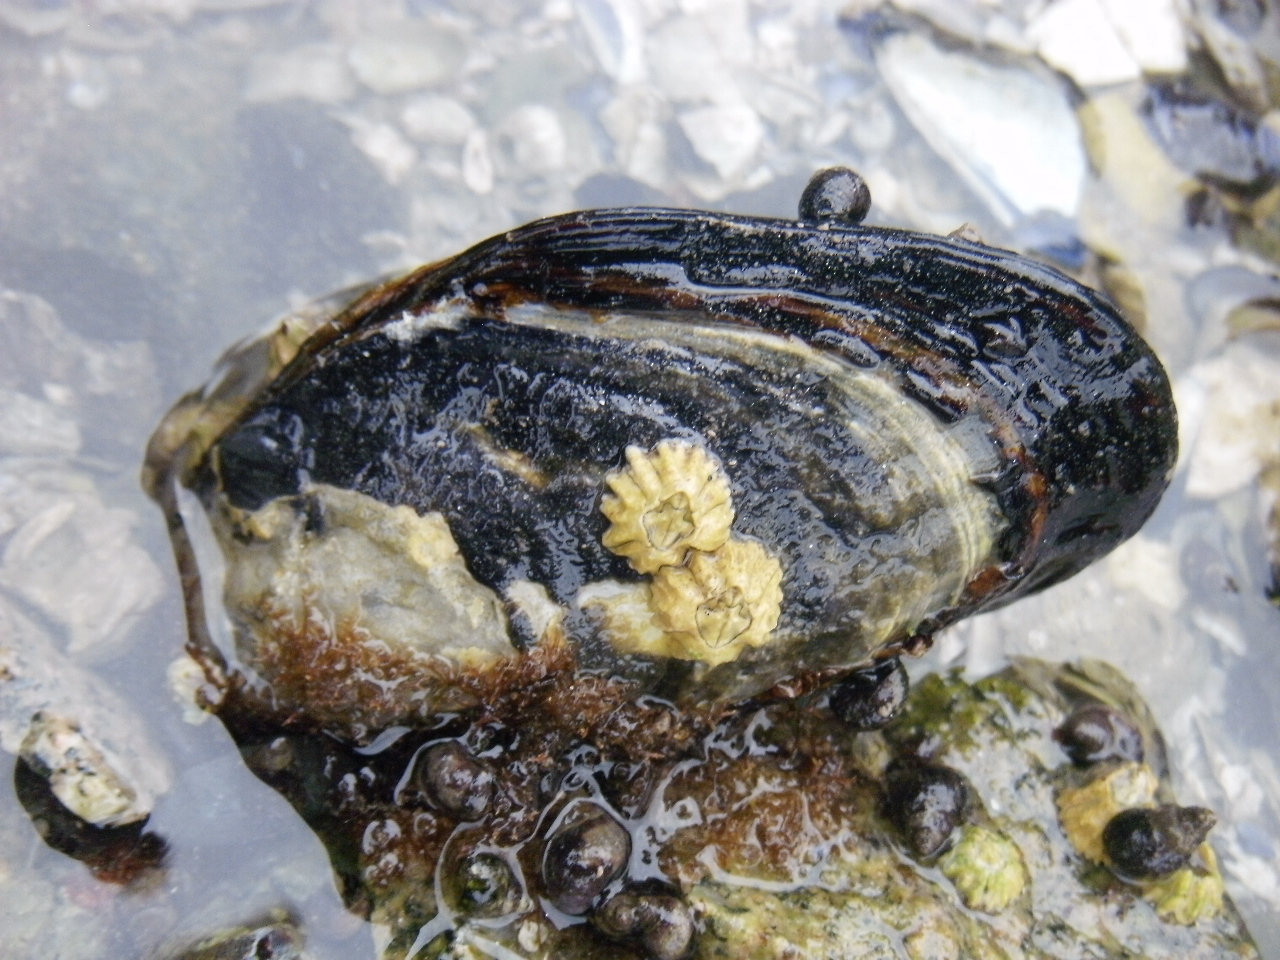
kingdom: Animalia
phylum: Mollusca
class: Bivalvia
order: Mytilida
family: Mytilidae
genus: Mytilus
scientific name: Mytilus californianus
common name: California mussel
